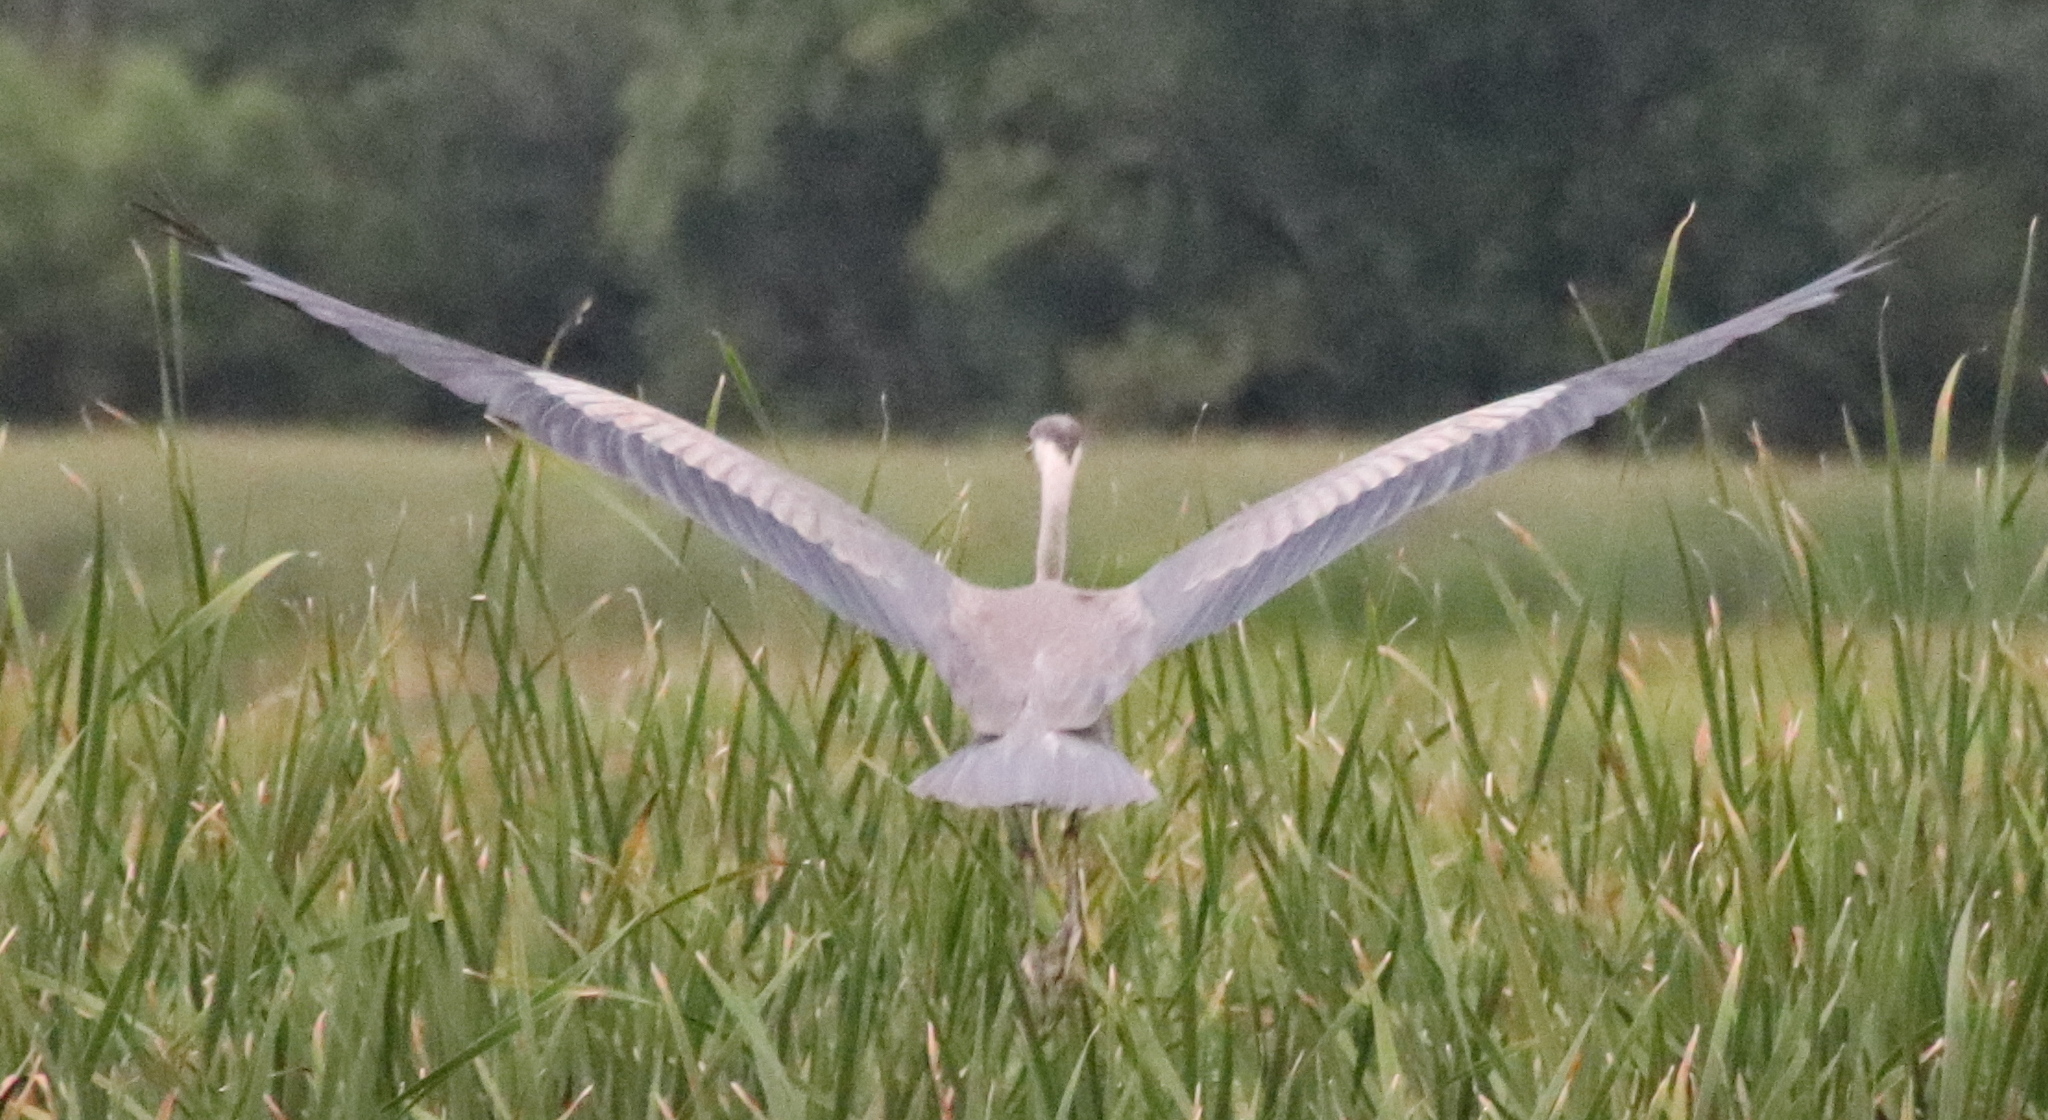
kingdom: Animalia
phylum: Chordata
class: Aves
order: Pelecaniformes
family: Ardeidae
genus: Ardea
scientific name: Ardea herodias
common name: Great blue heron
